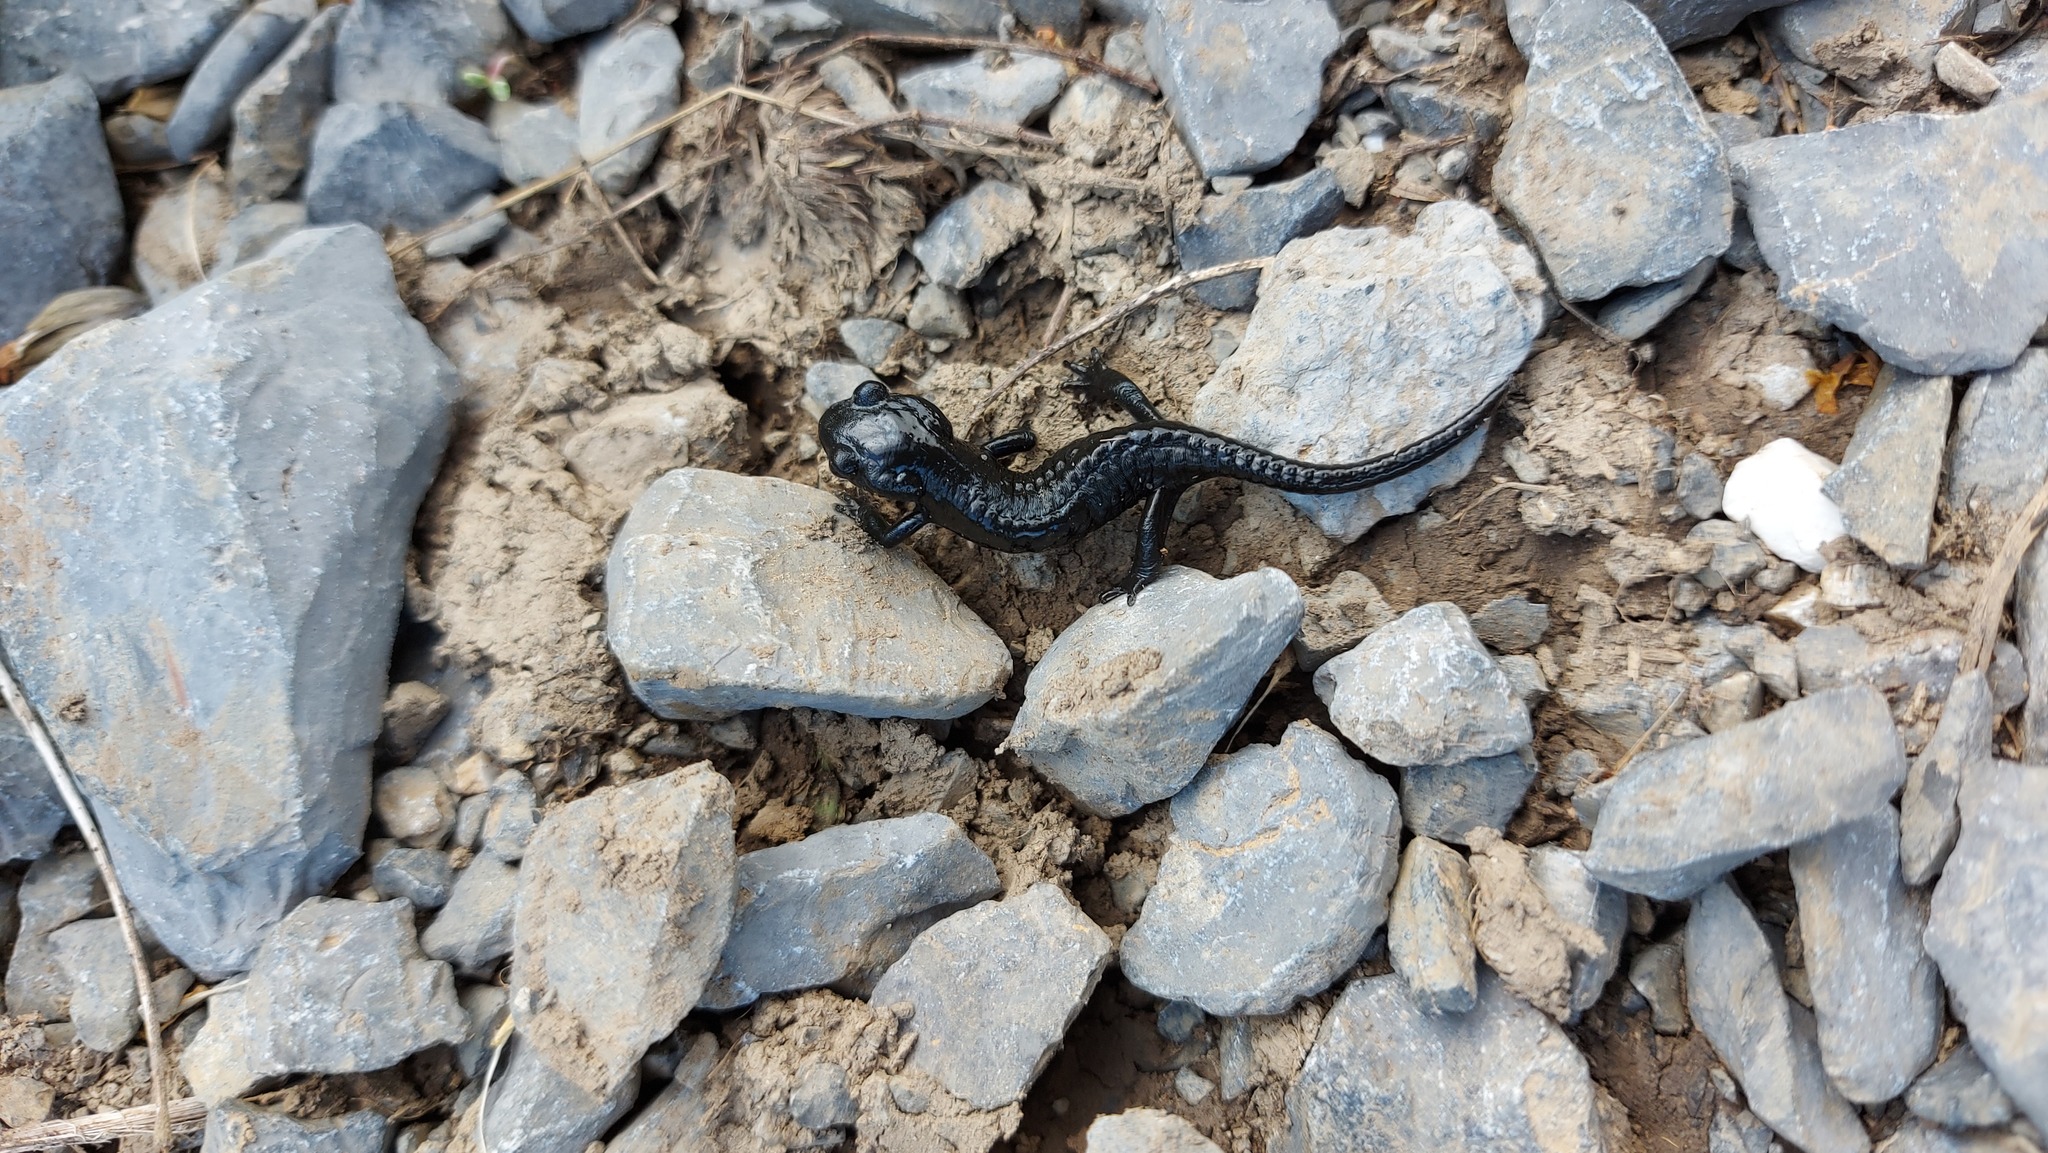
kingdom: Animalia
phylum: Chordata
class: Amphibia
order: Caudata
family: Salamandridae
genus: Salamandra
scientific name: Salamandra atra
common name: Alpine salamander
